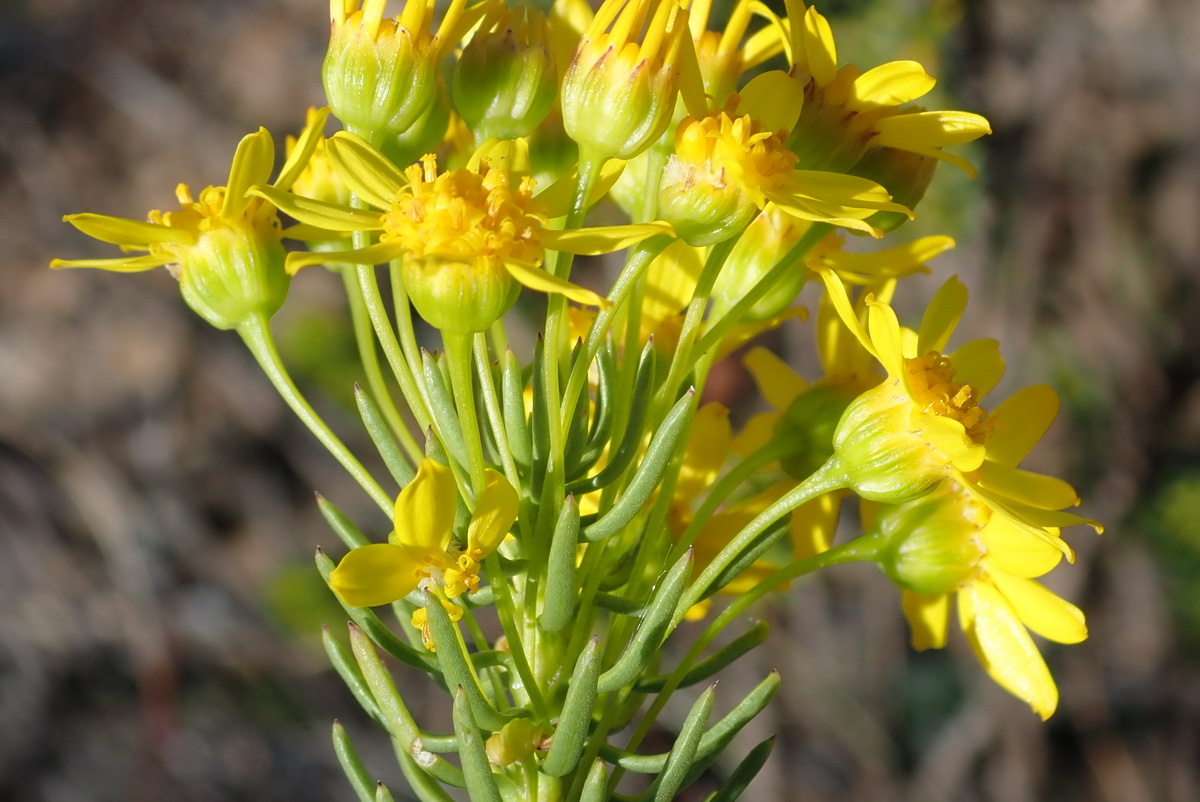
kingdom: Plantae
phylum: Tracheophyta
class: Magnoliopsida
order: Asterales
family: Asteraceae
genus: Euryops
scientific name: Euryops erectus
